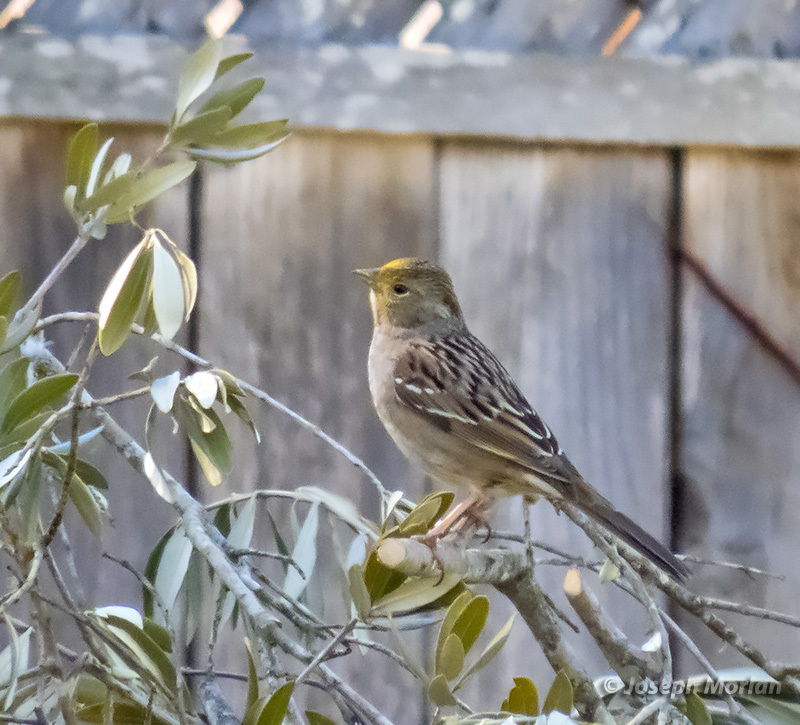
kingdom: Animalia
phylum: Chordata
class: Aves
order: Passeriformes
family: Passerellidae
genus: Zonotrichia
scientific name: Zonotrichia atricapilla
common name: Golden-crowned sparrow
